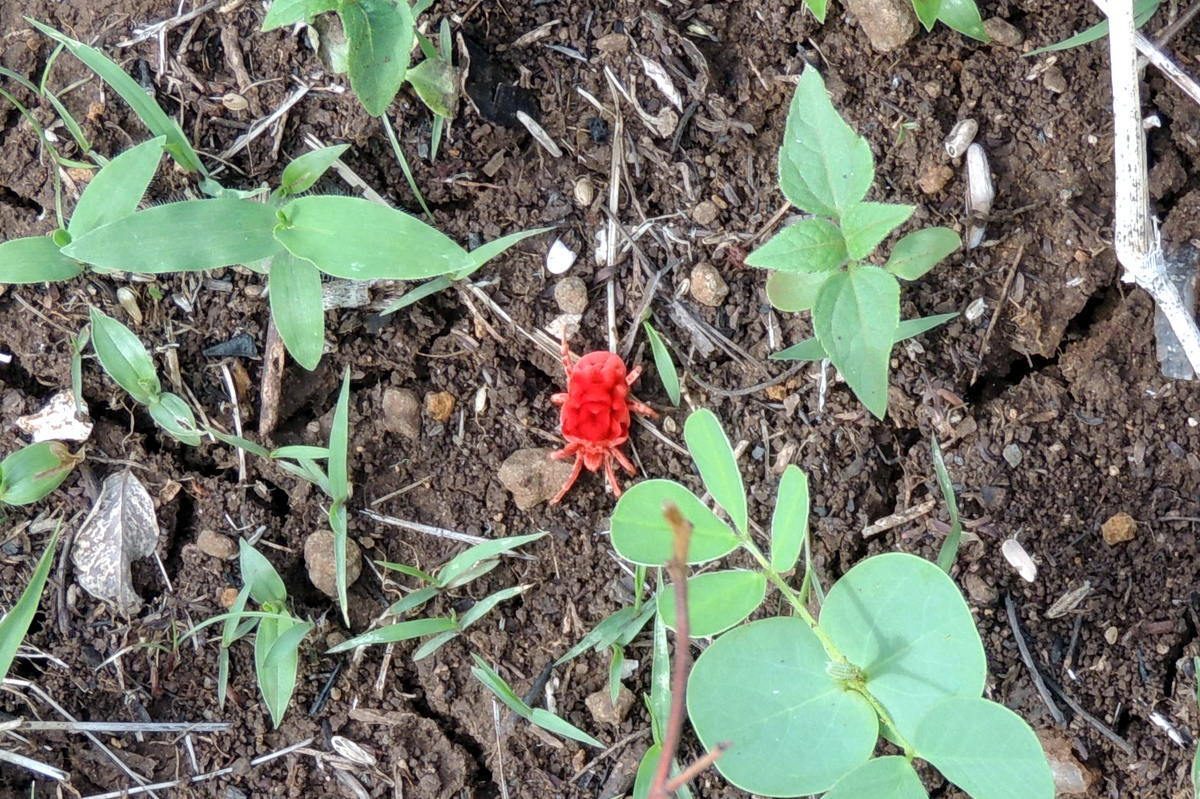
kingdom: Animalia
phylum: Arthropoda
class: Arachnida
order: Trombidiformes
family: Leeuwenhoekiidae
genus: Dinothrombium
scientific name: Dinothrombium
